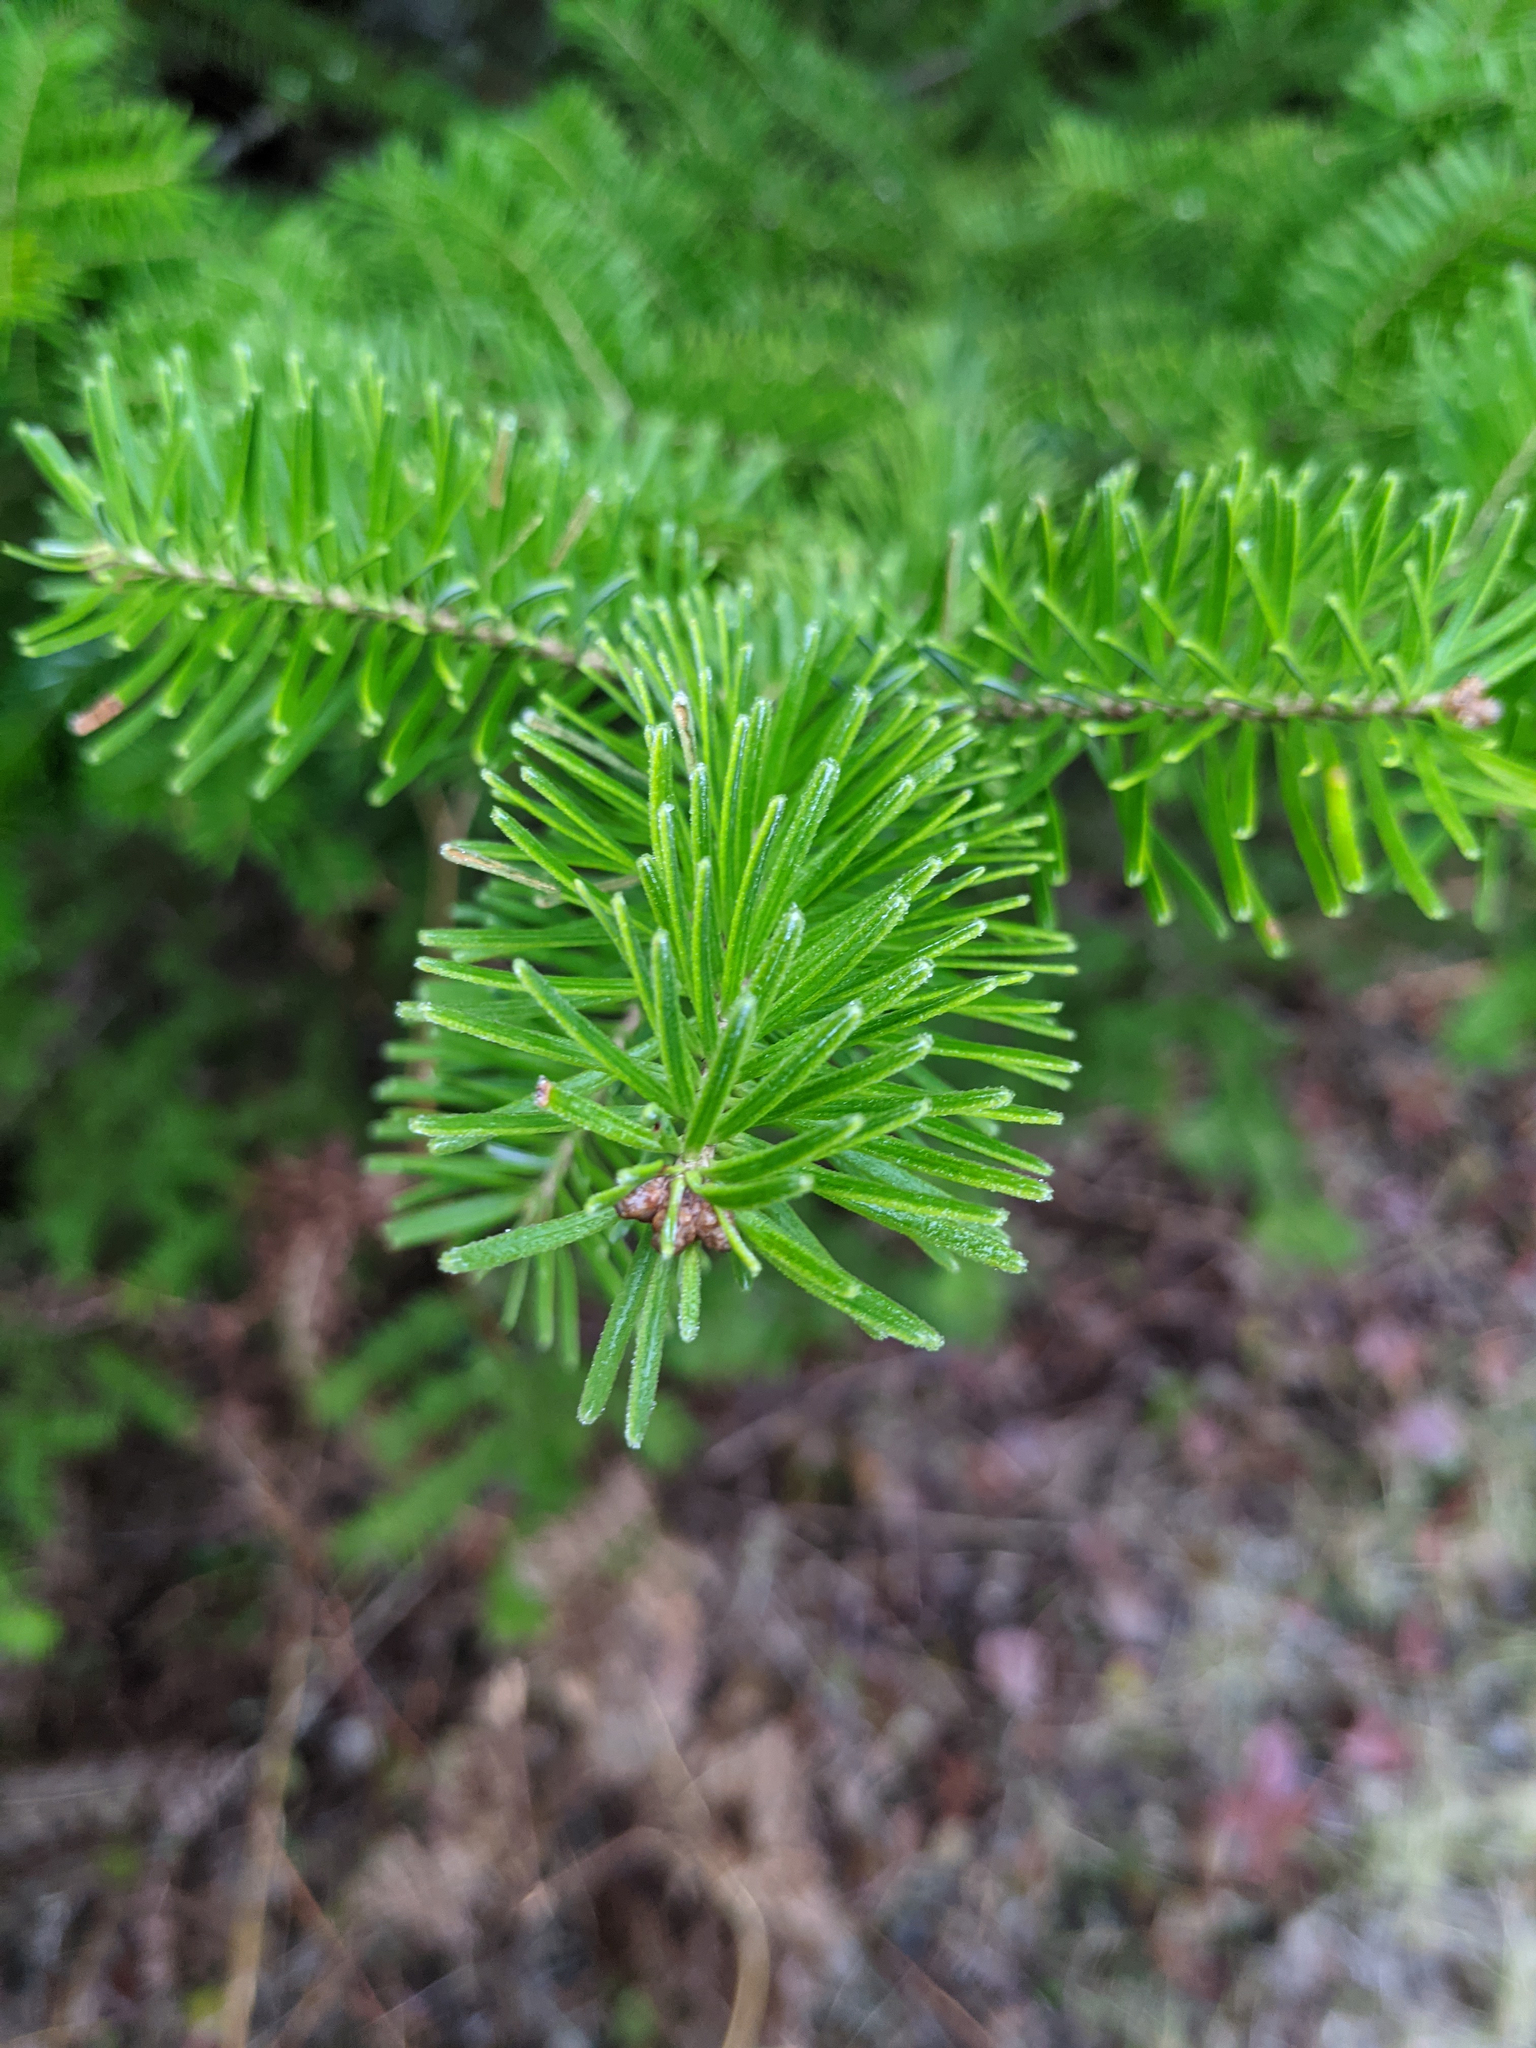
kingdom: Plantae
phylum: Tracheophyta
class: Pinopsida
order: Pinales
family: Pinaceae
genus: Abies
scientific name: Abies balsamea
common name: Balsam fir
